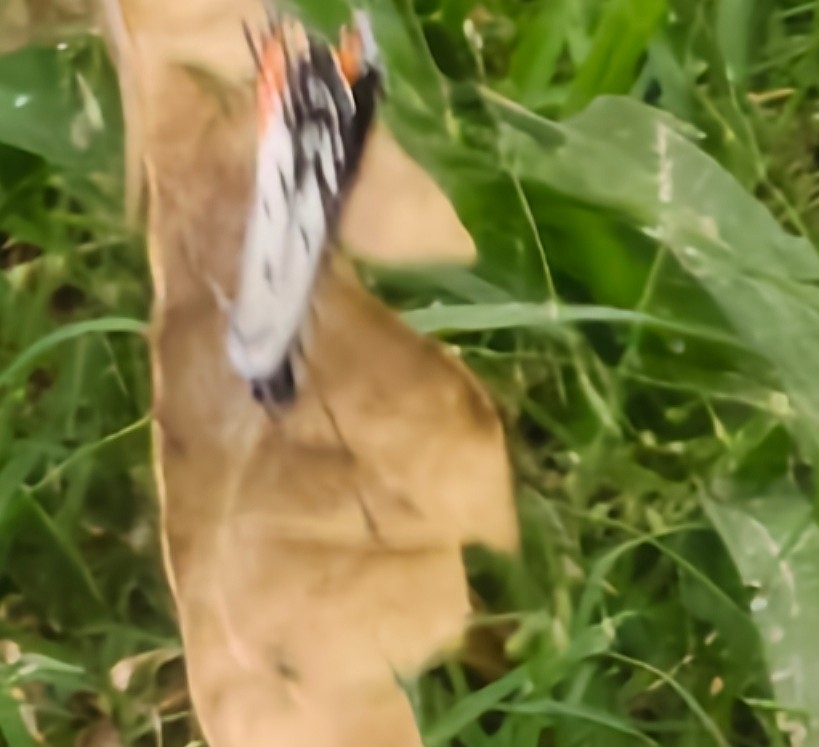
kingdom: Animalia
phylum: Arthropoda
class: Insecta
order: Lepidoptera
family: Lycaenidae
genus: Talicada
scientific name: Talicada nyseus
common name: Red pierrot
